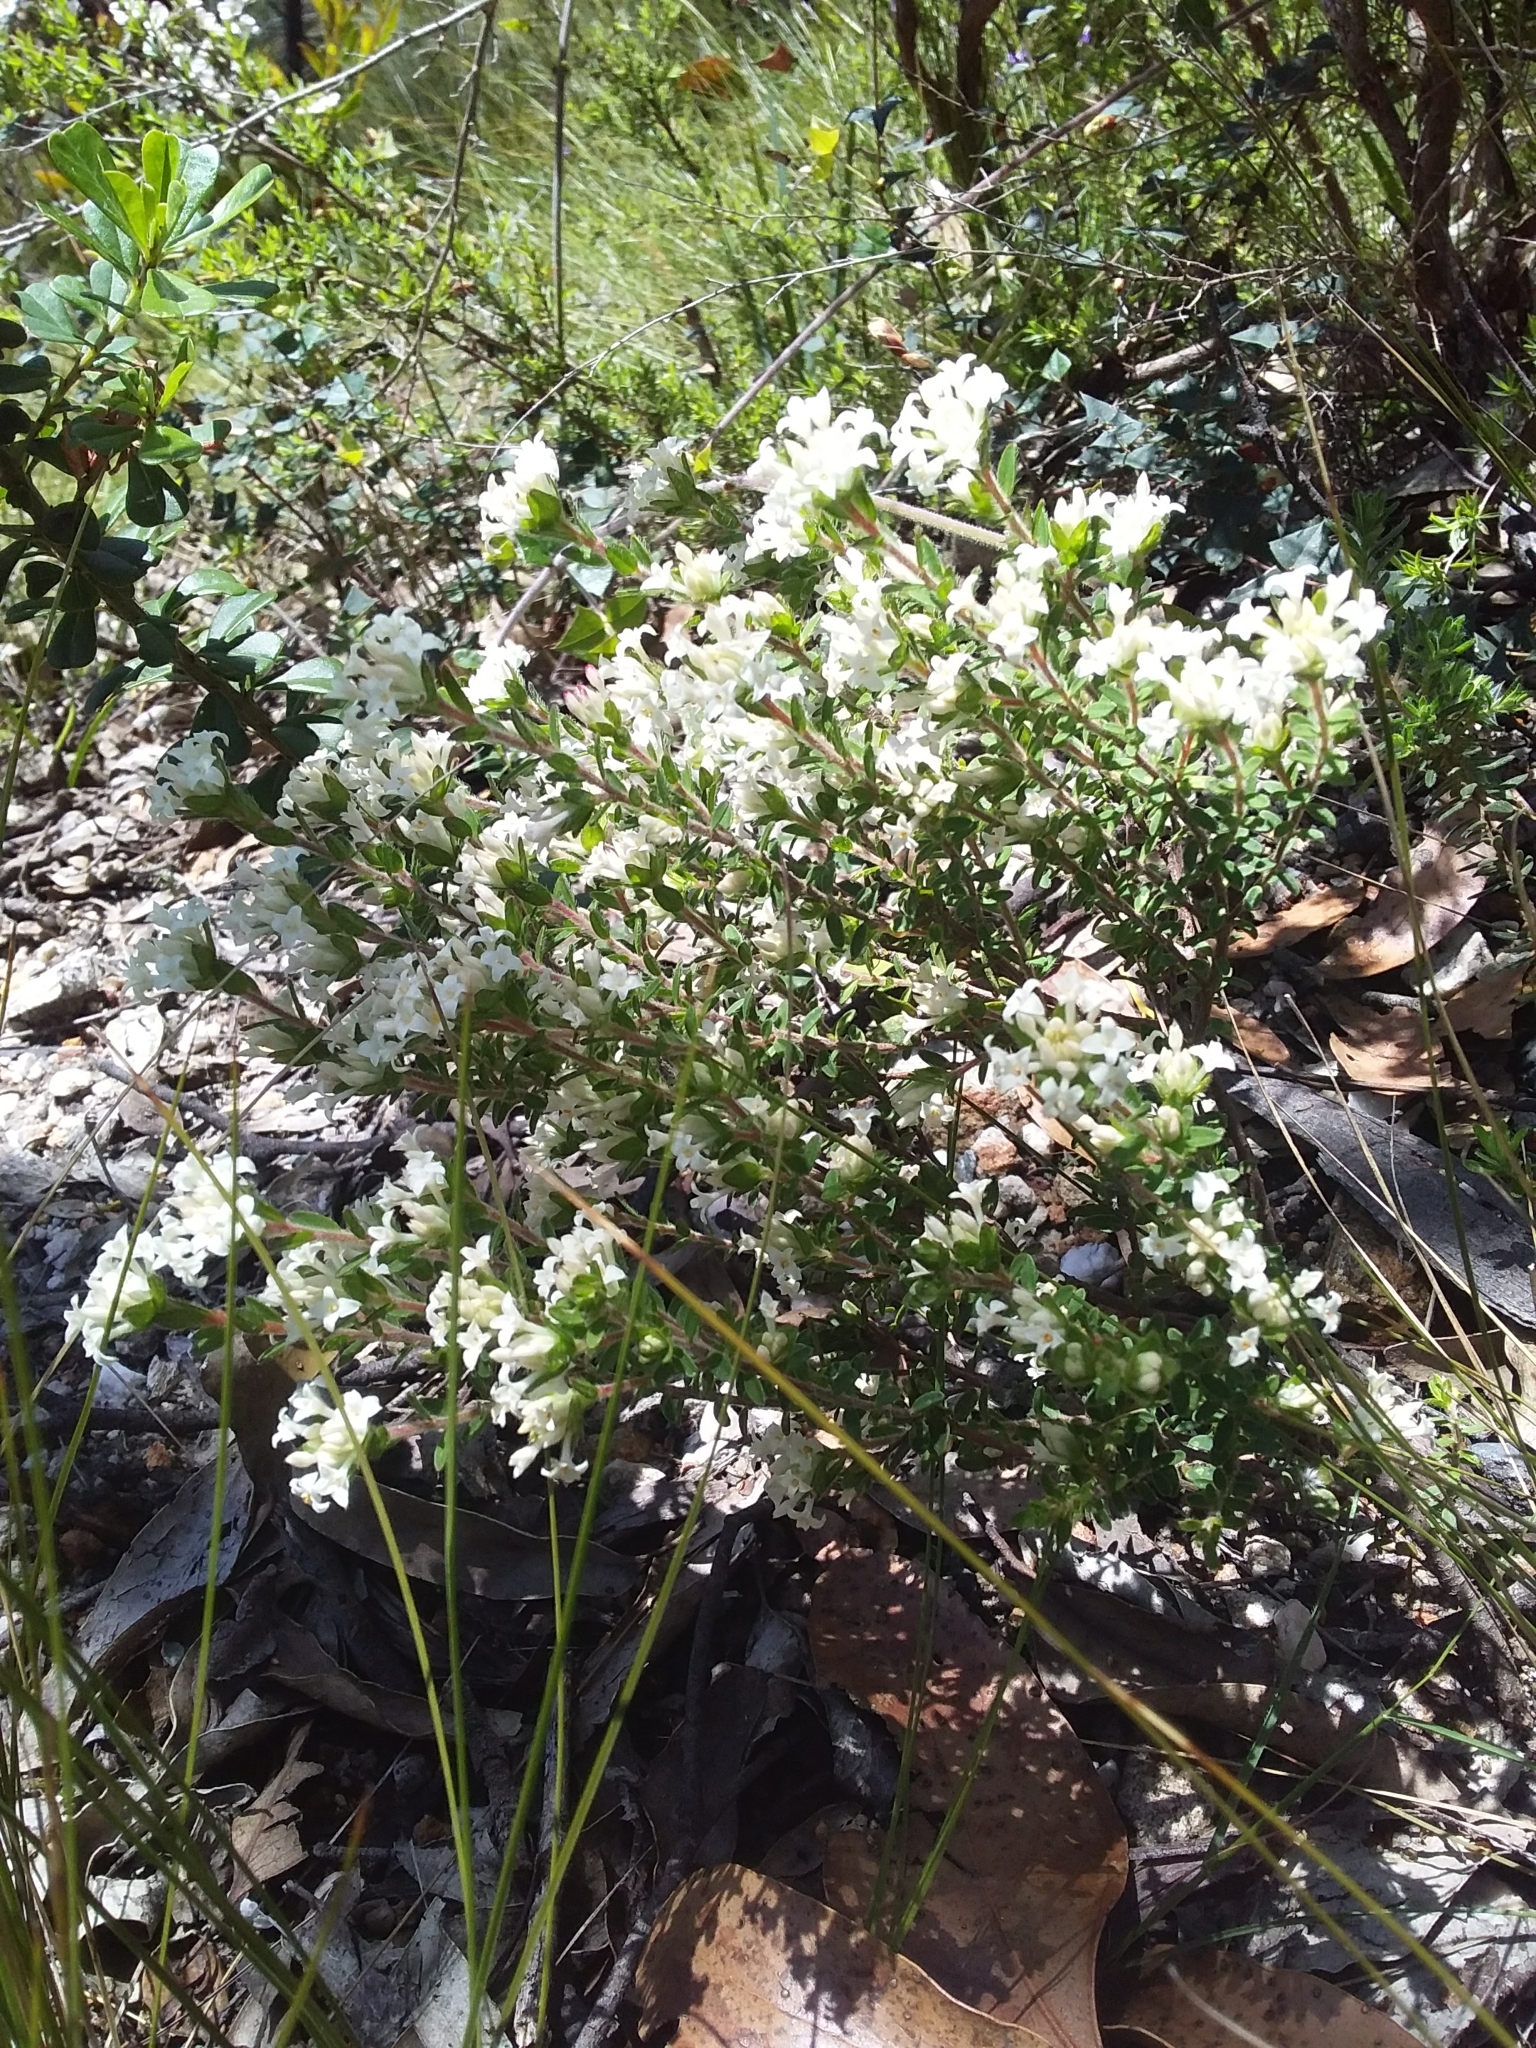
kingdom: Plantae
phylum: Tracheophyta
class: Magnoliopsida
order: Malvales
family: Thymelaeaceae
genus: Pimelea
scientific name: Pimelea phylicoides
